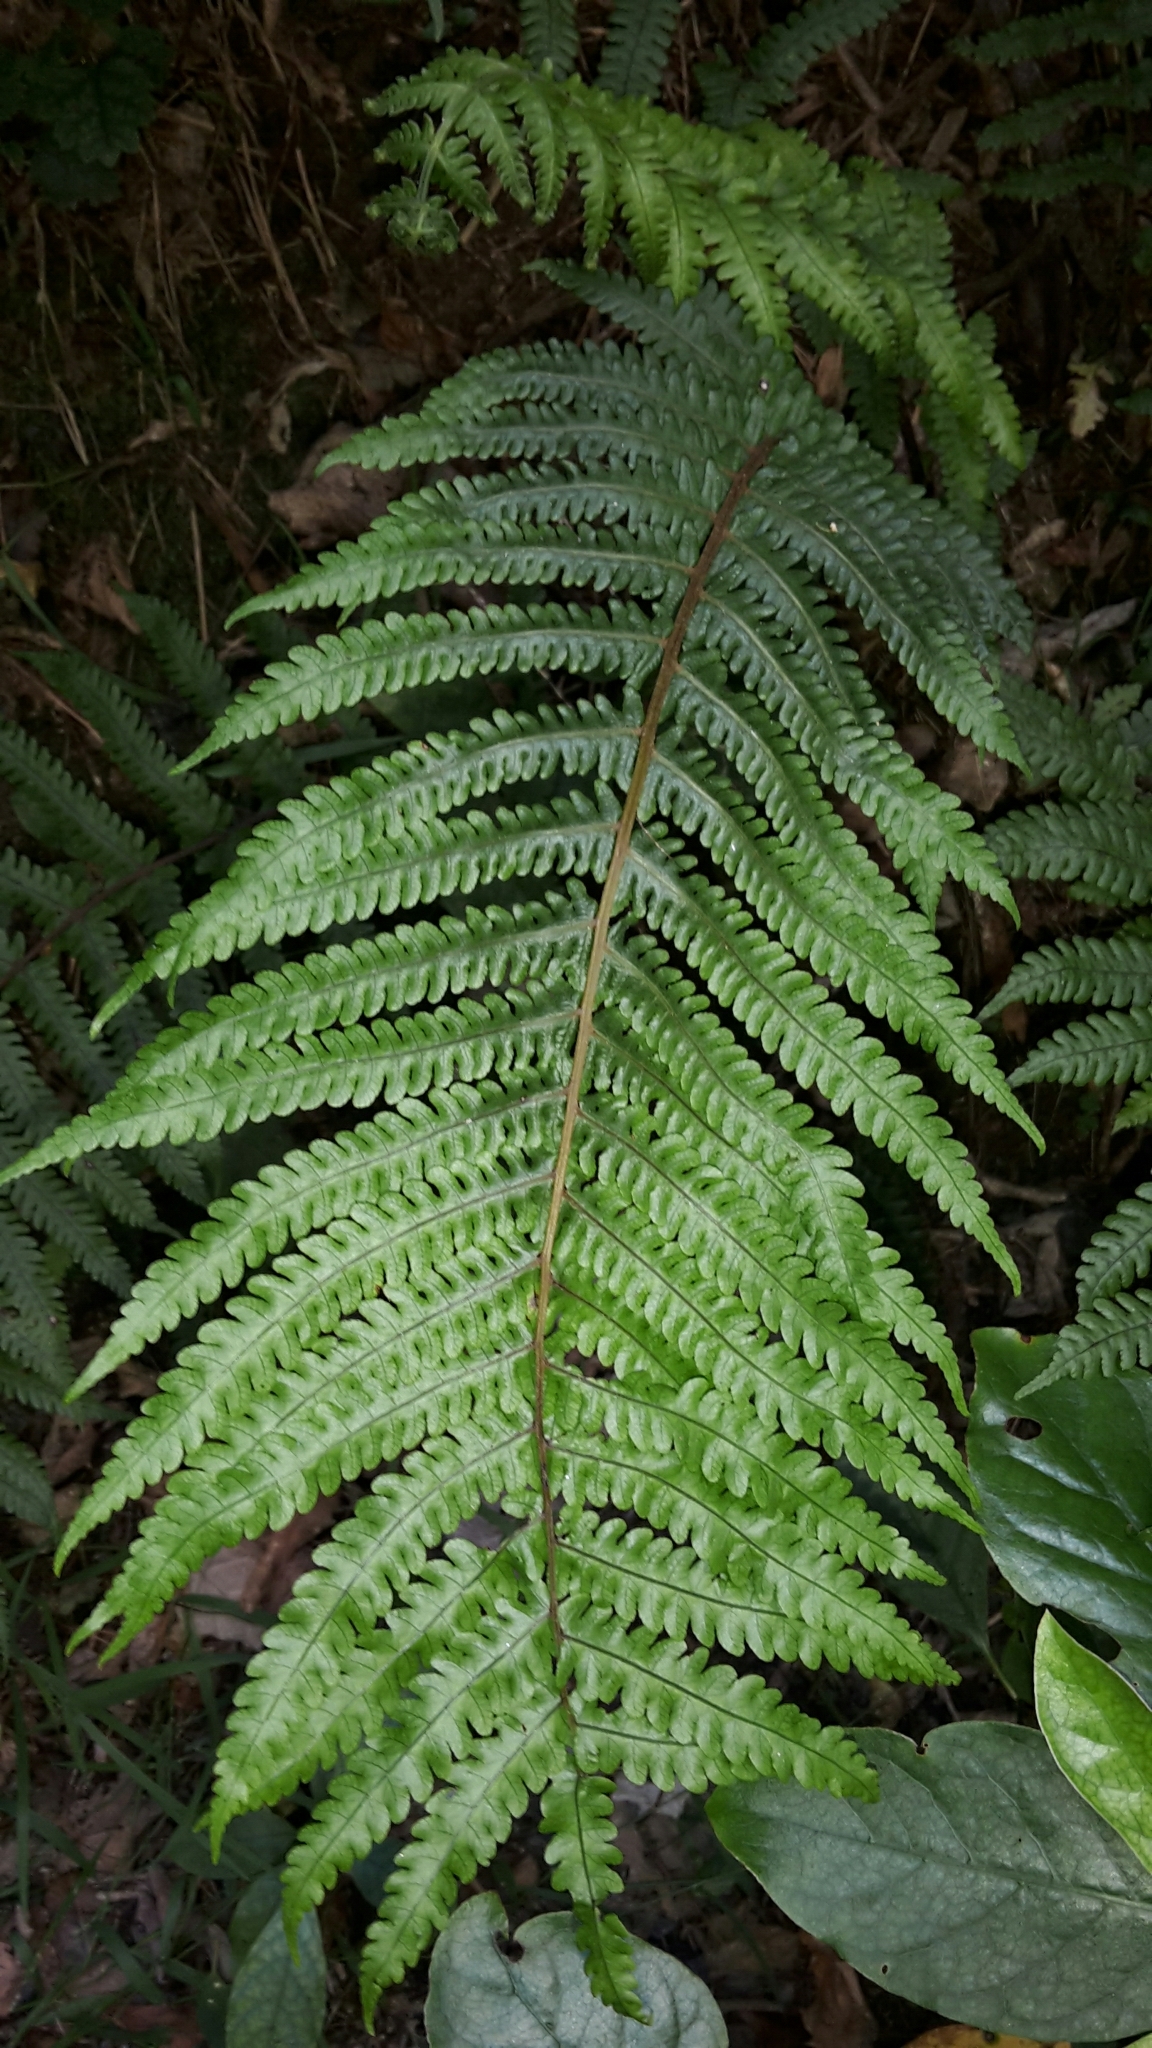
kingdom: Plantae
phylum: Tracheophyta
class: Polypodiopsida
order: Polypodiales
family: Thelypteridaceae
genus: Pakau
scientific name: Pakau pennigera
